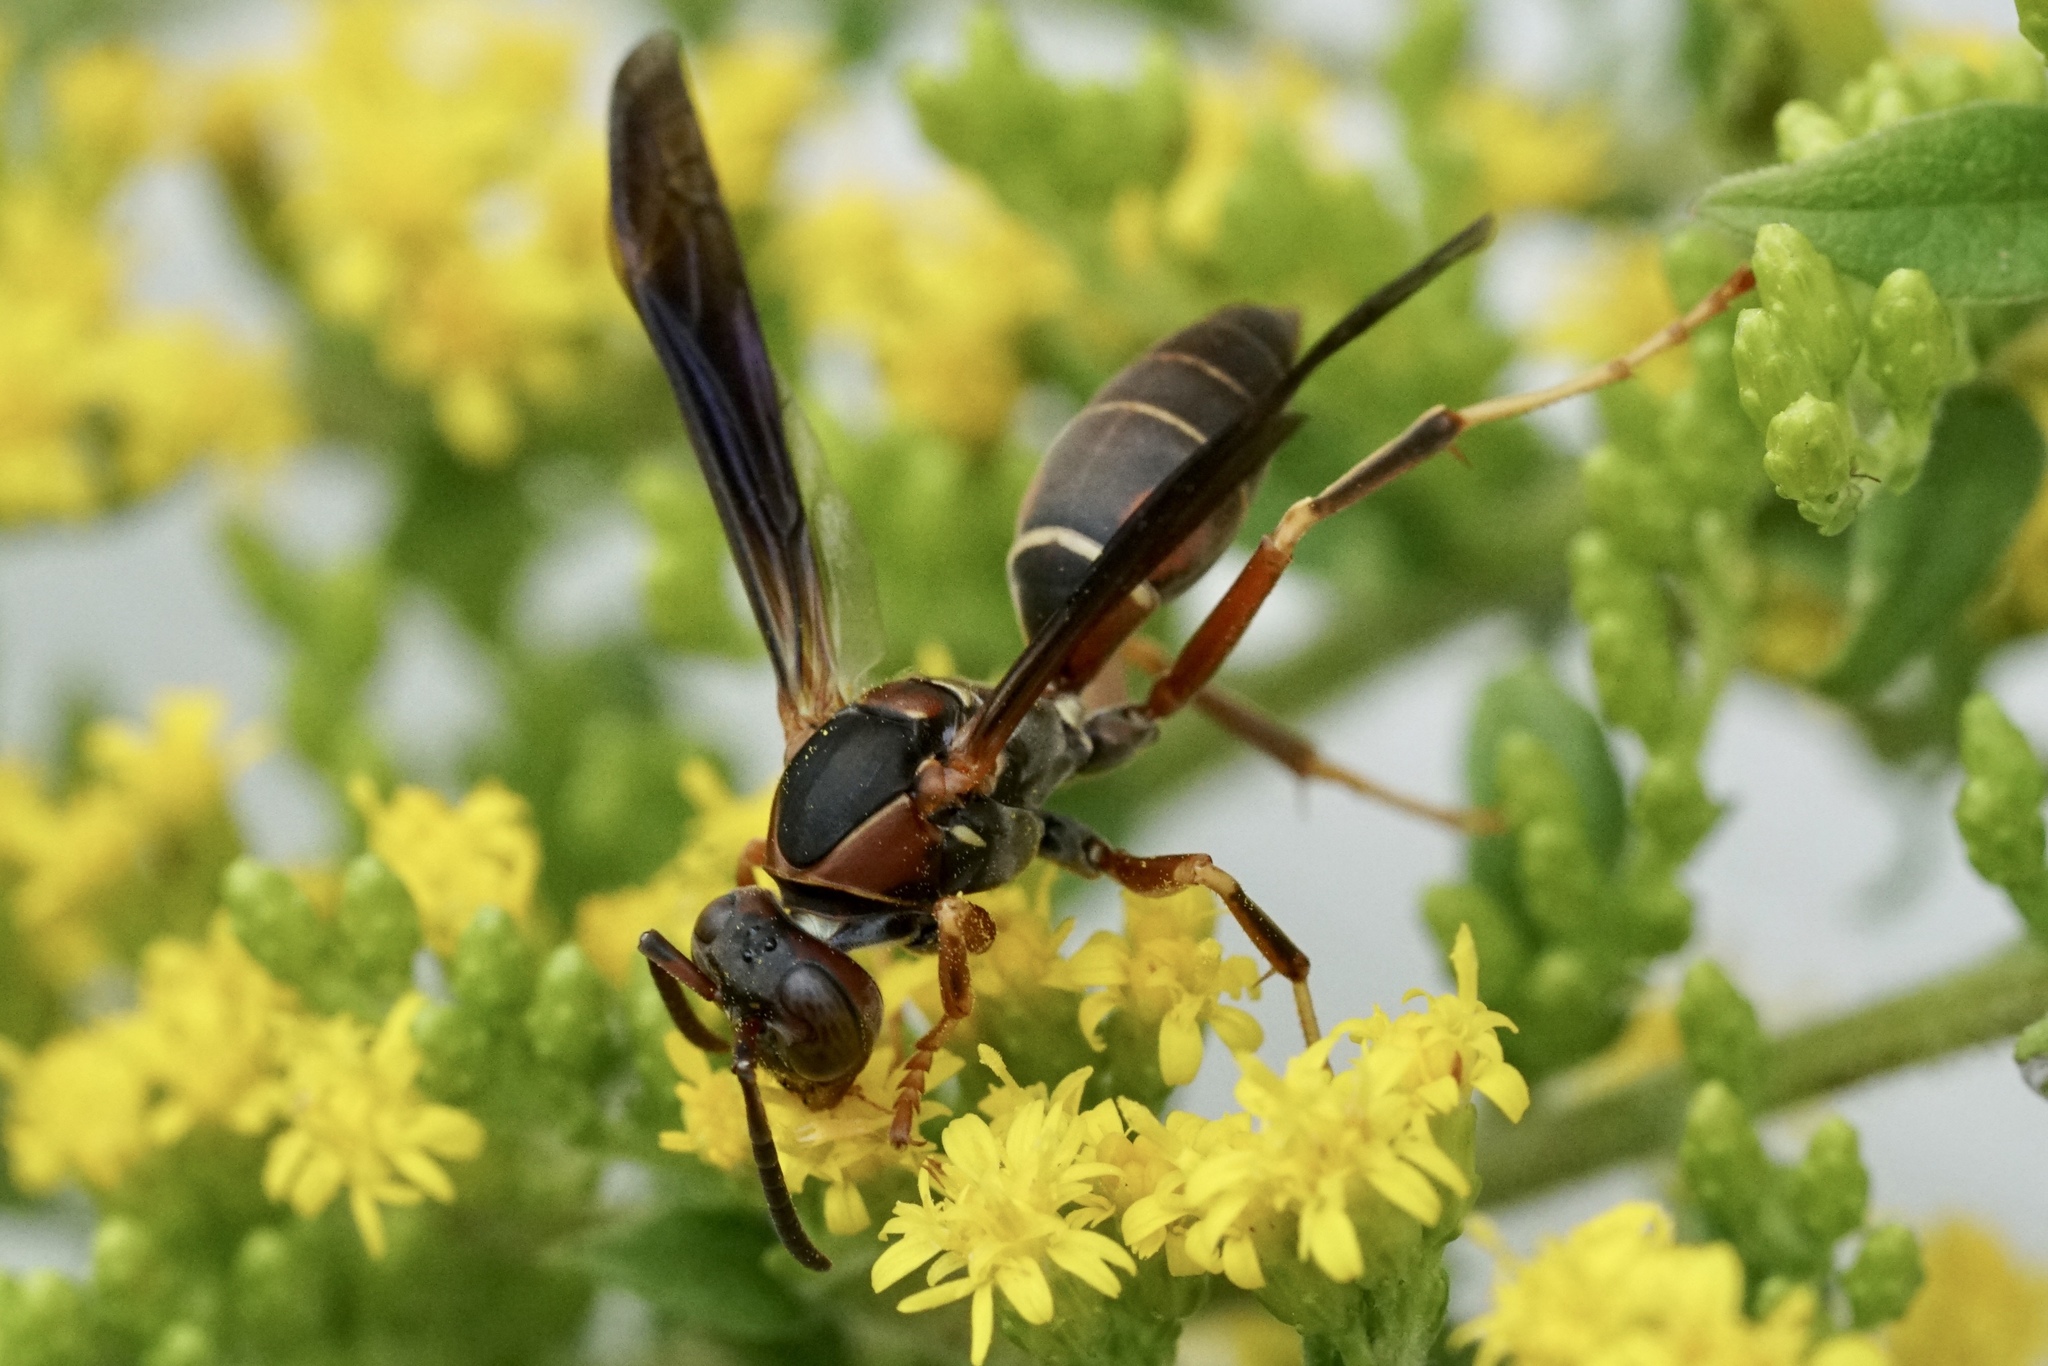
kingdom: Animalia
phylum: Arthropoda
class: Insecta
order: Hymenoptera
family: Eumenidae
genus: Polistes
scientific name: Polistes fuscatus
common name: Dark paper wasp
